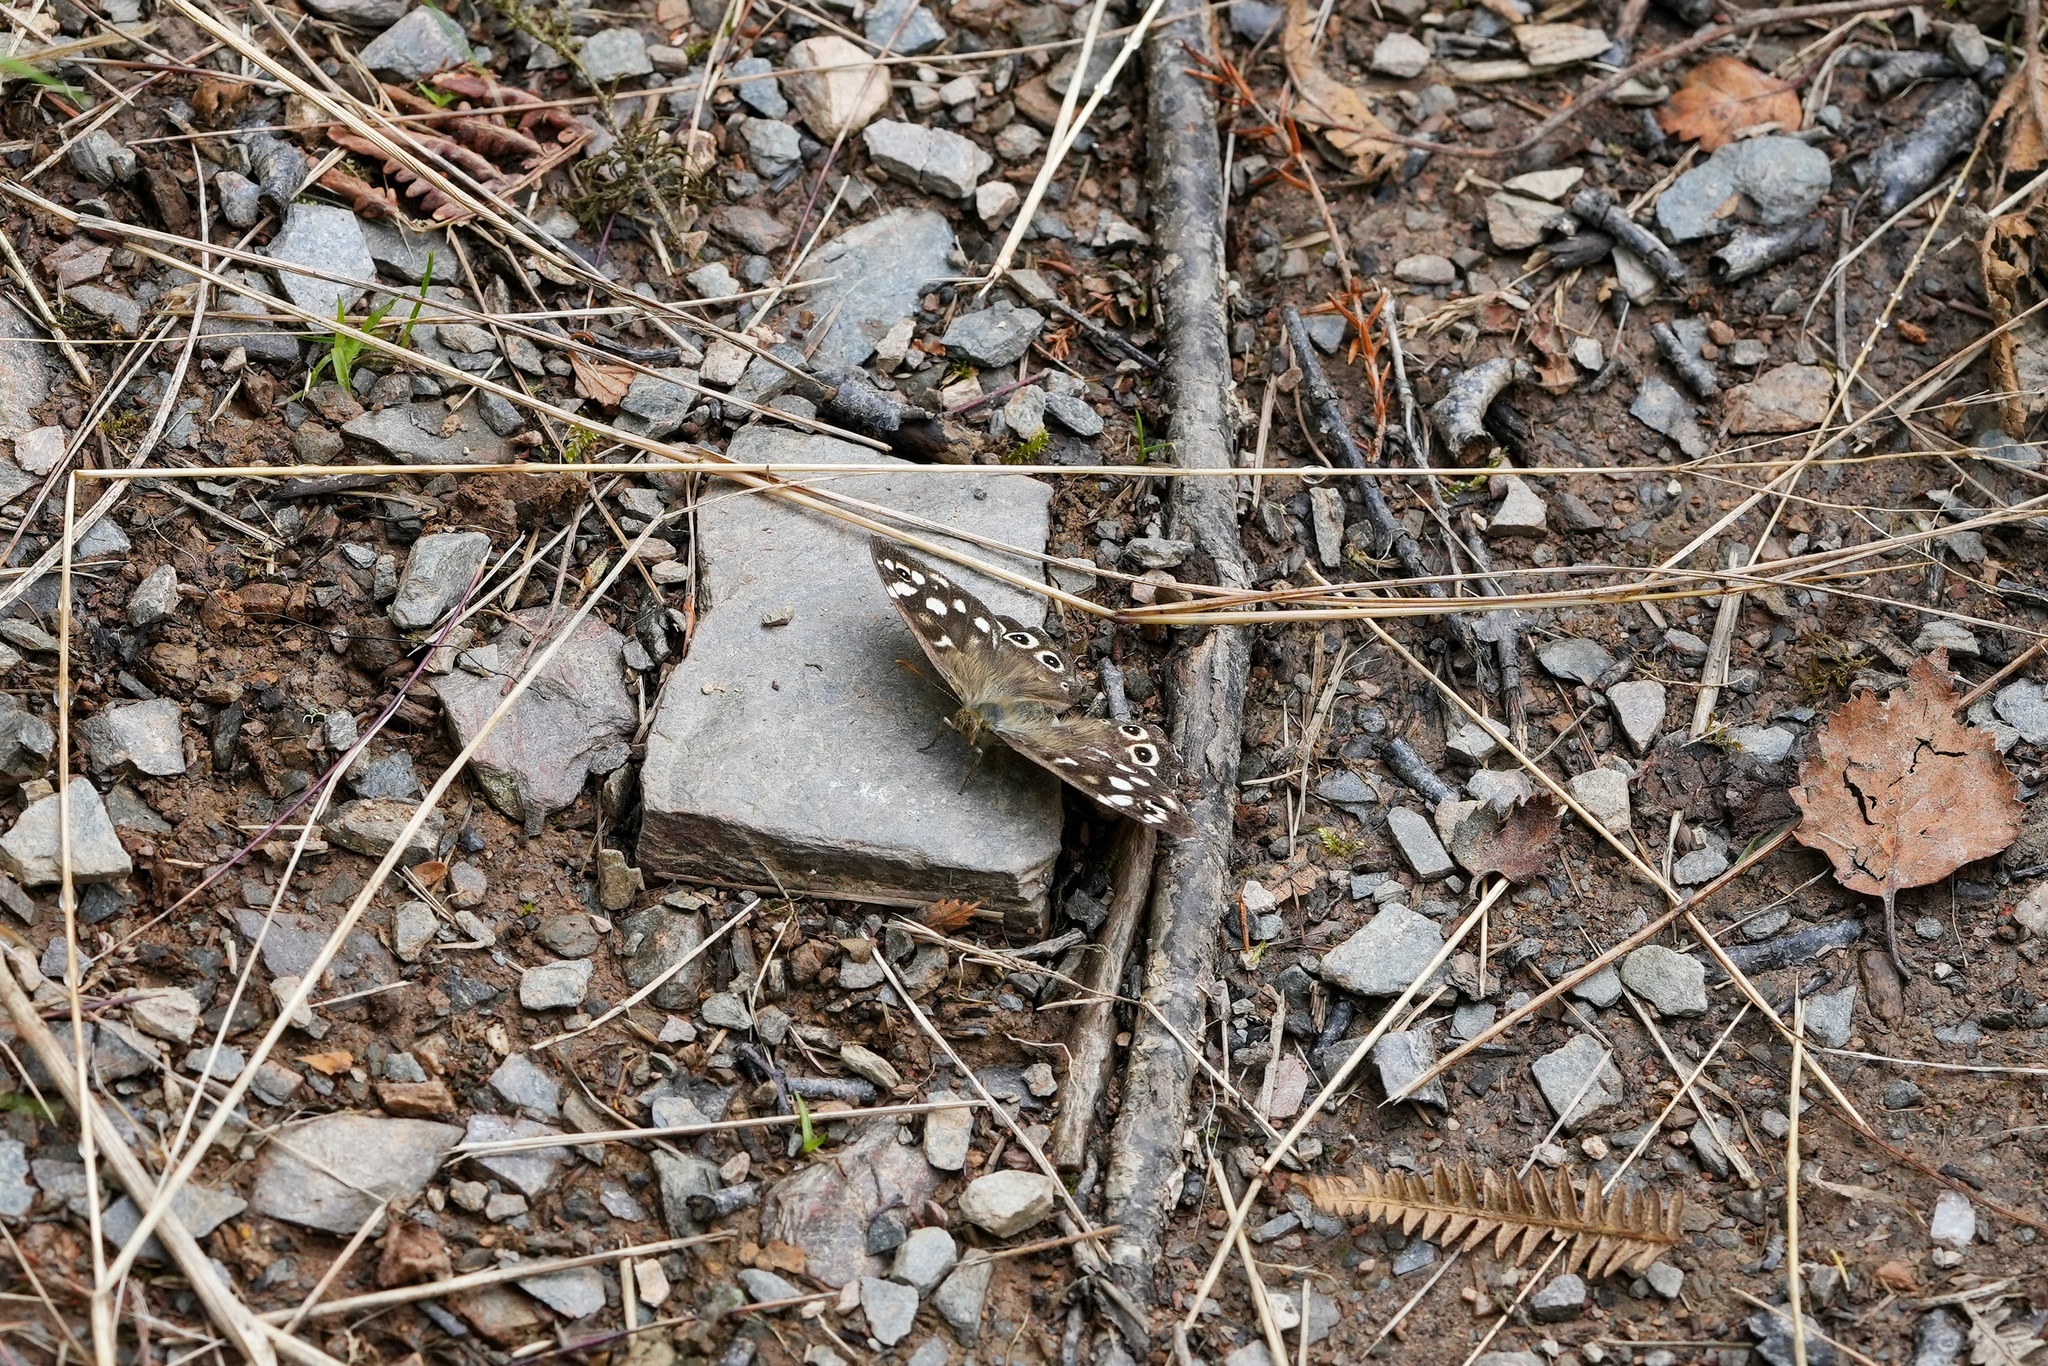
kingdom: Animalia
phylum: Arthropoda
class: Insecta
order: Lepidoptera
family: Nymphalidae
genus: Pararge
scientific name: Pararge aegeria
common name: Speckled wood
